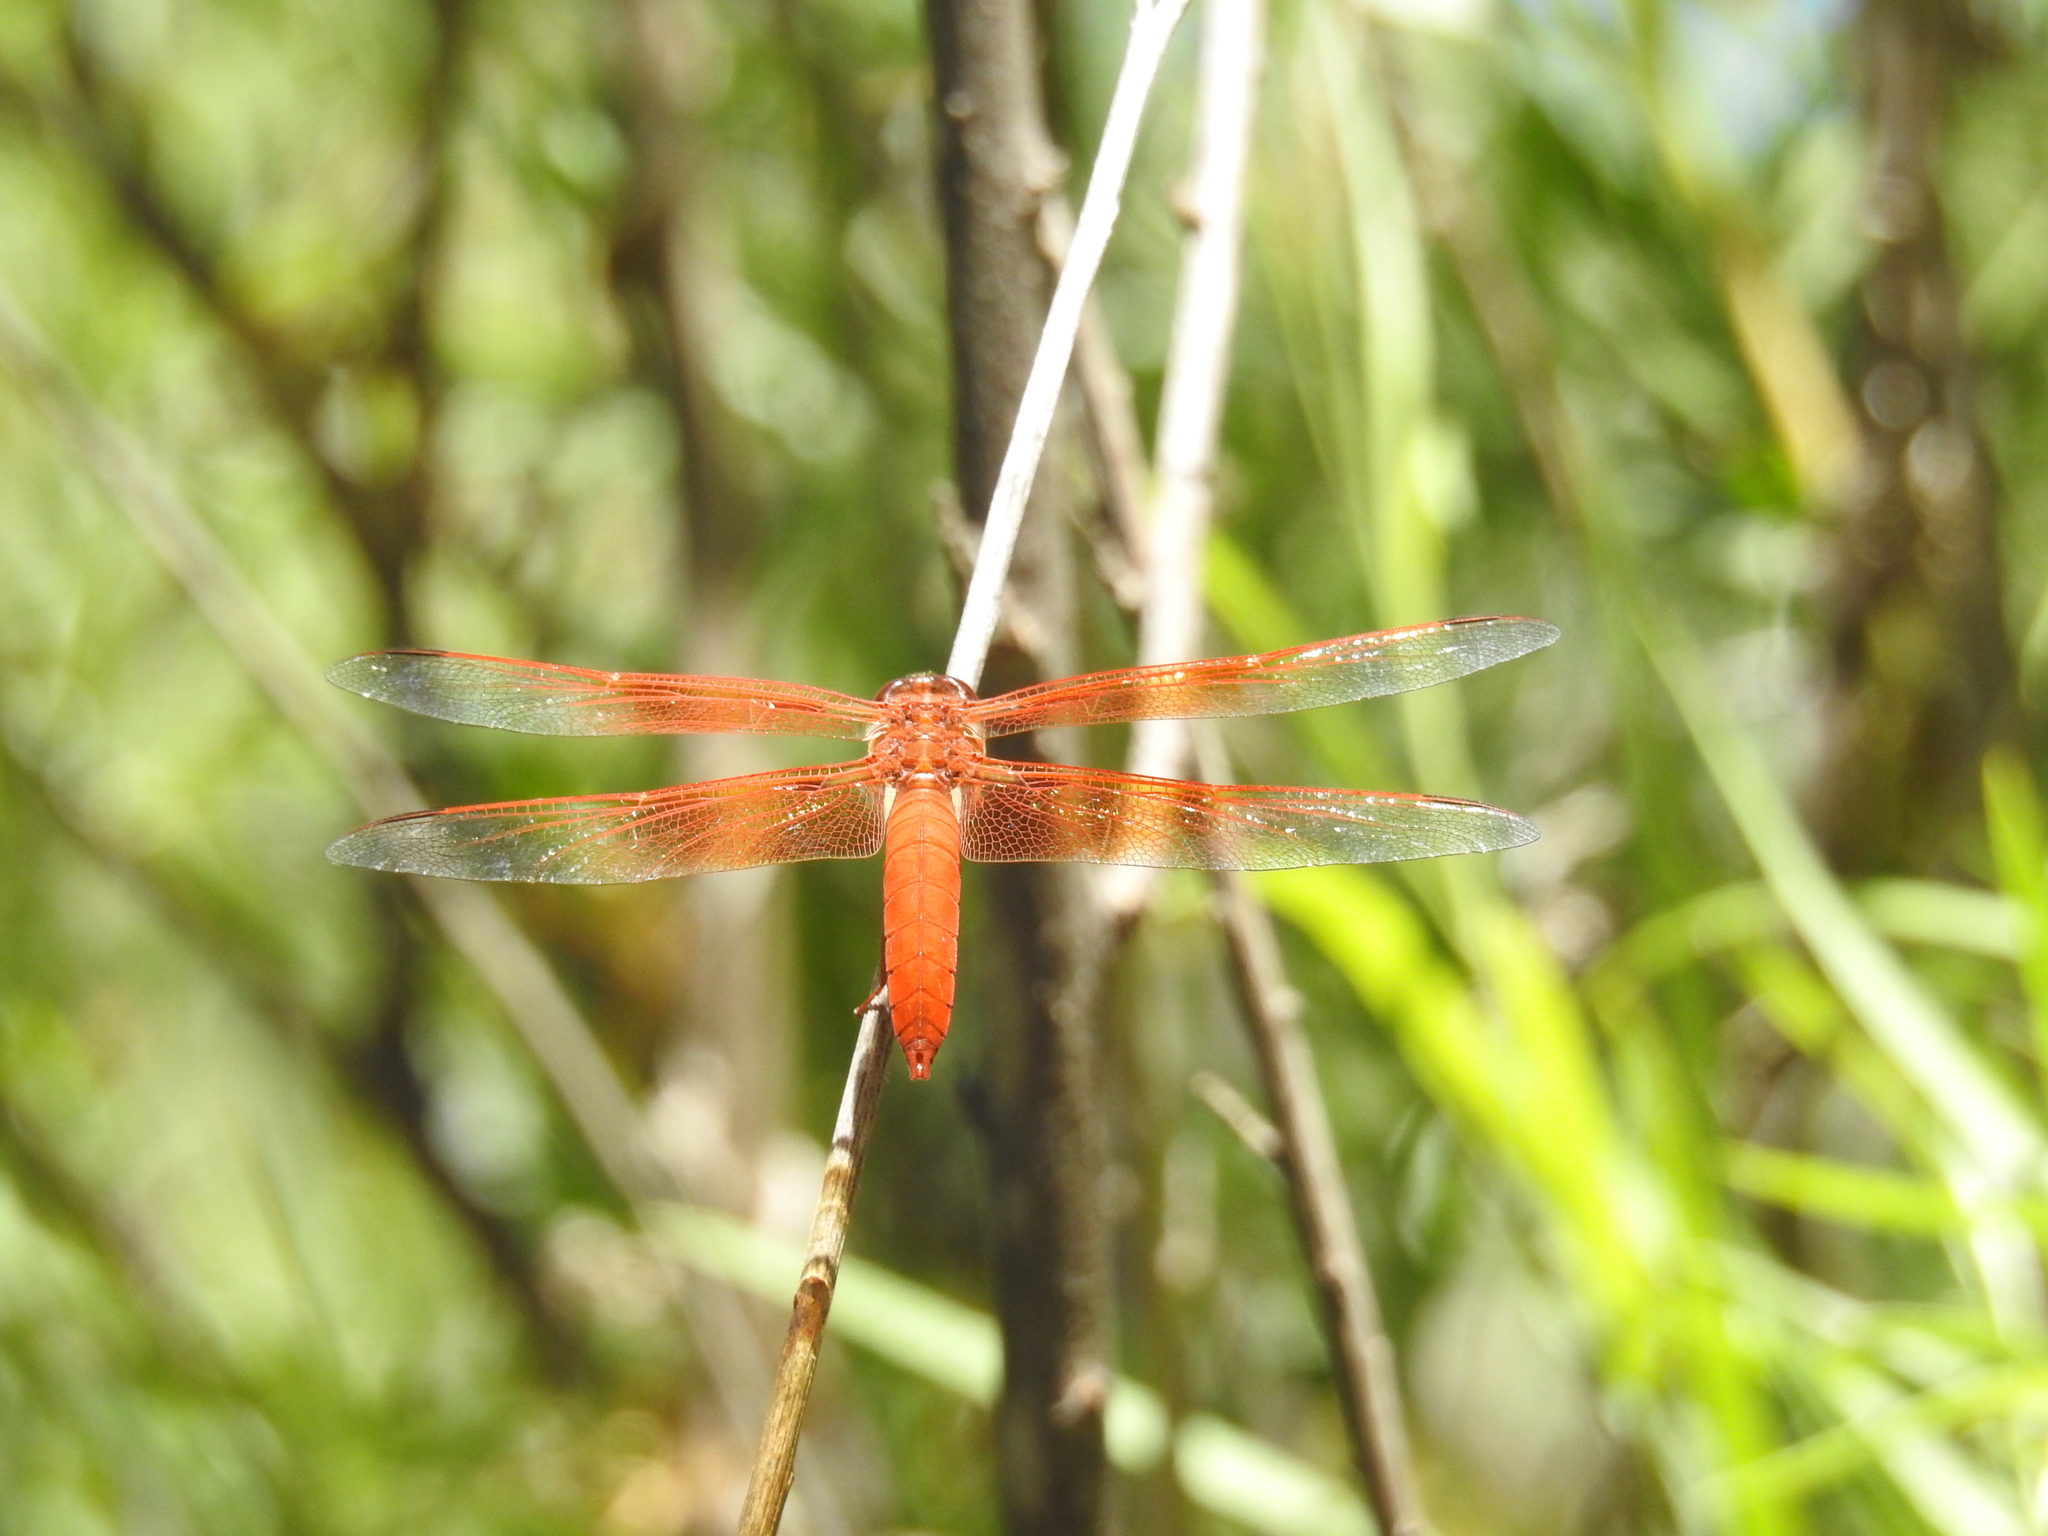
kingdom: Animalia
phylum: Arthropoda
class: Insecta
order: Odonata
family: Libellulidae
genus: Libellula
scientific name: Libellula saturata
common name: Flame skimmer
